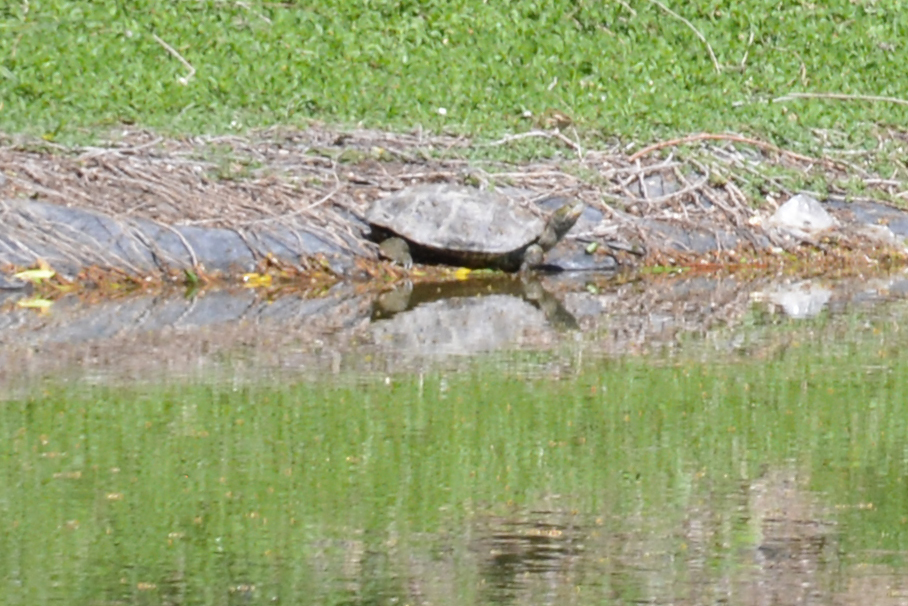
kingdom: Animalia
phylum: Chordata
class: Testudines
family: Geoemydidae
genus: Mauremys
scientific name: Mauremys caspica
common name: Caspian turtle
